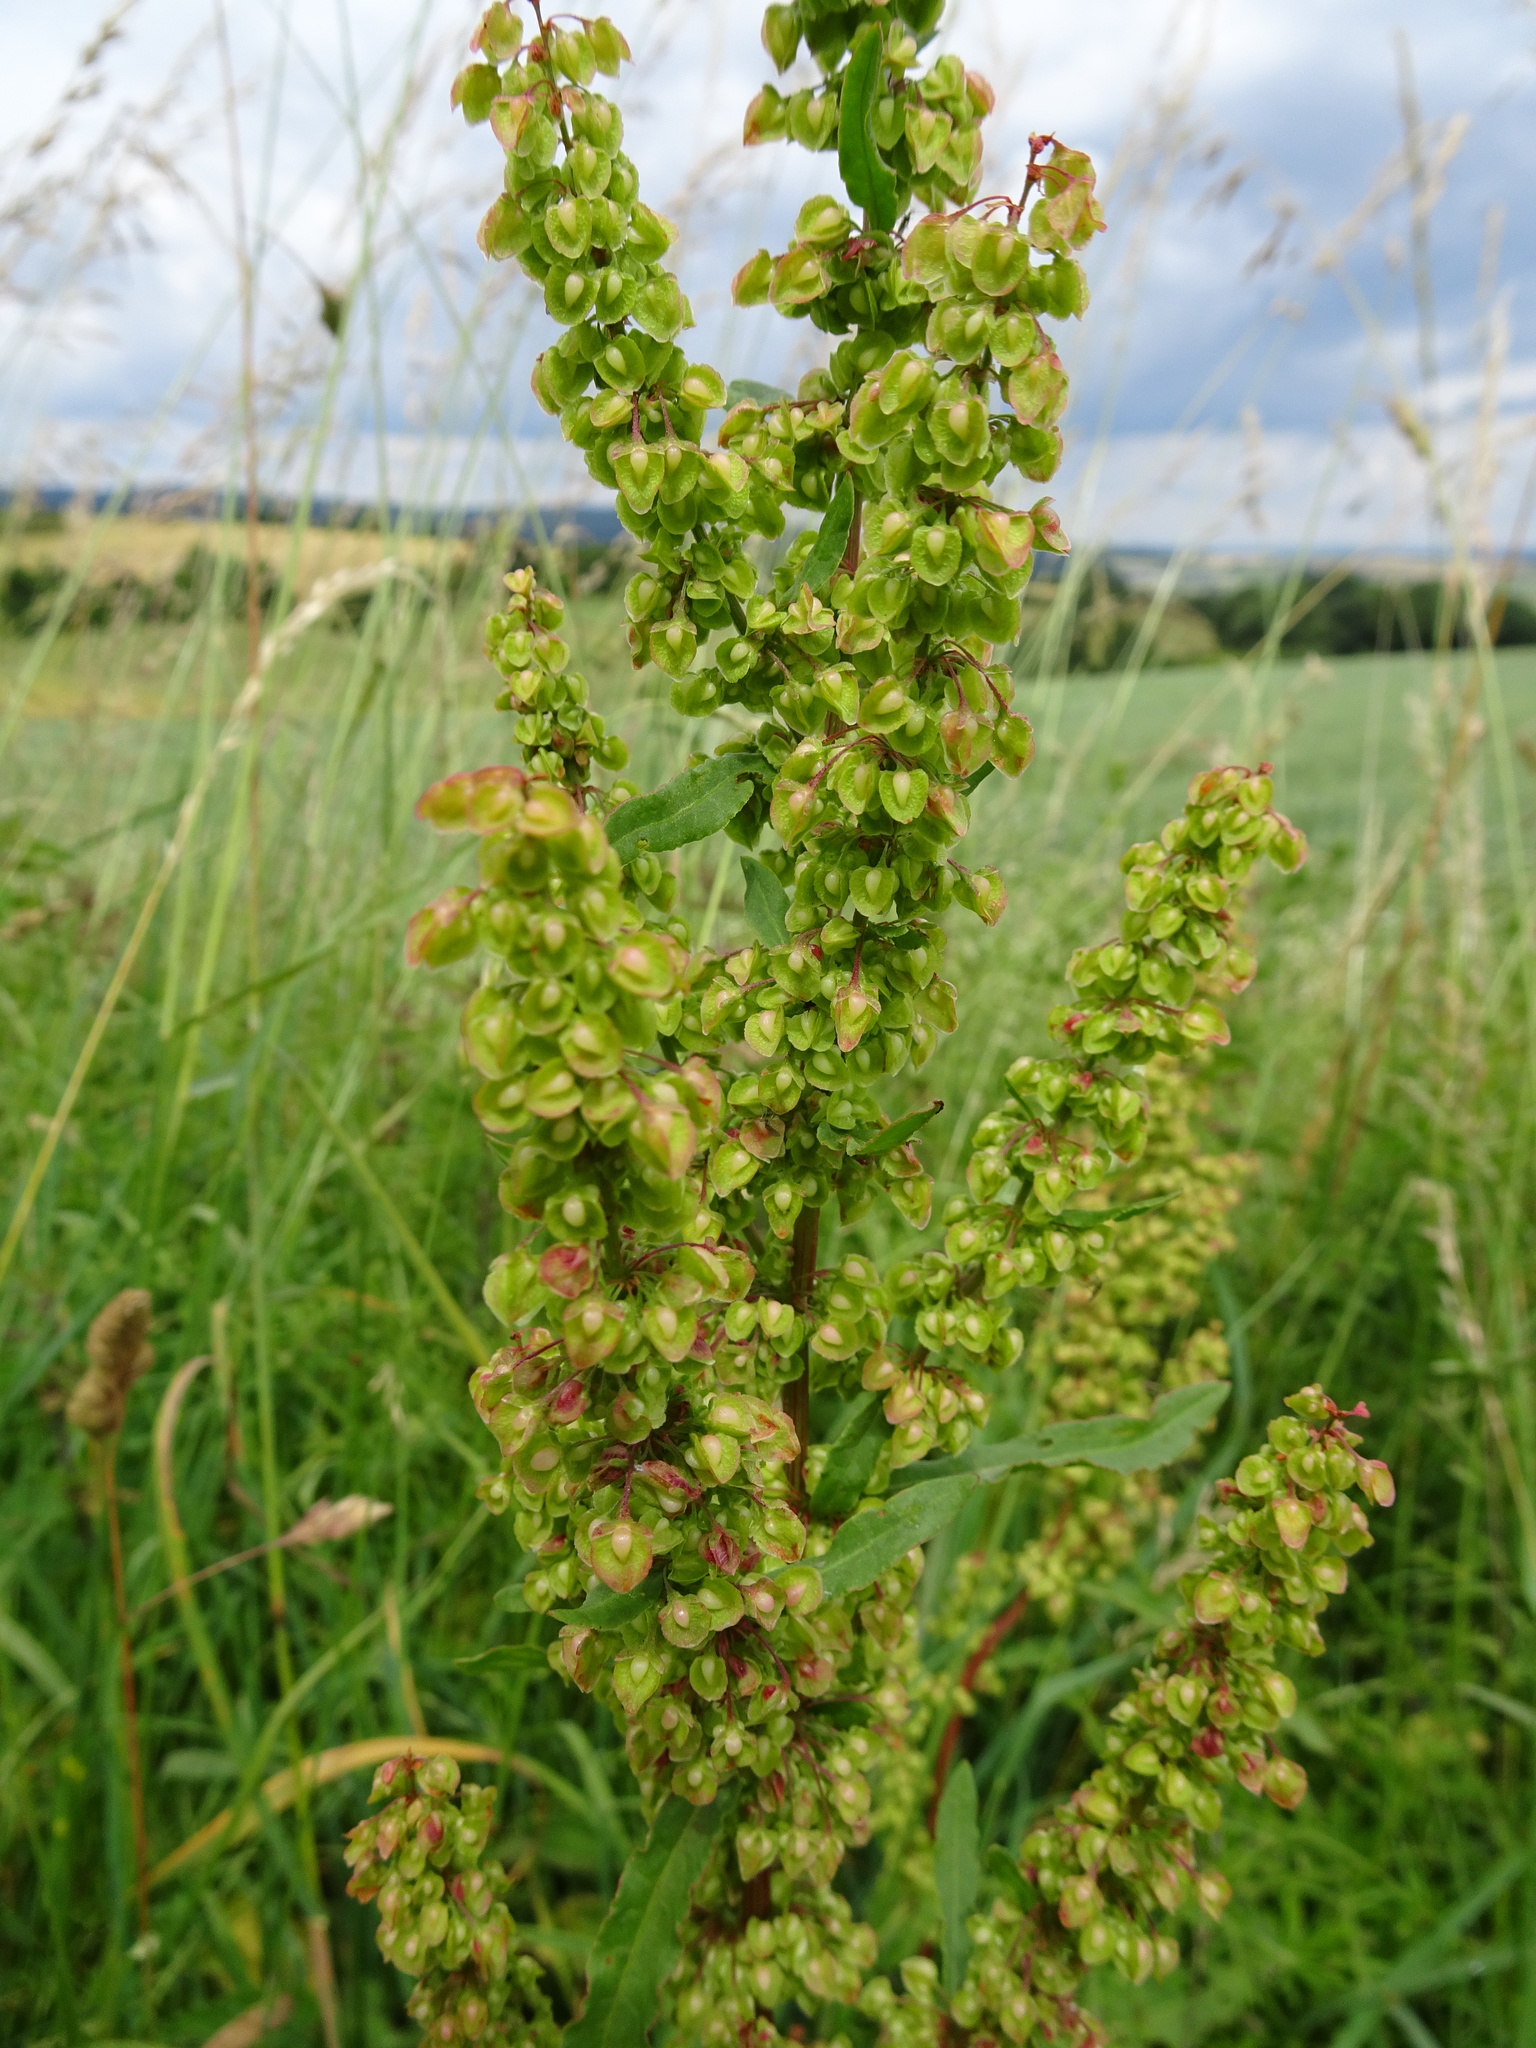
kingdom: Plantae
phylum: Tracheophyta
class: Magnoliopsida
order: Caryophyllales
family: Polygonaceae
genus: Rumex
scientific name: Rumex crispus
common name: Curled dock
